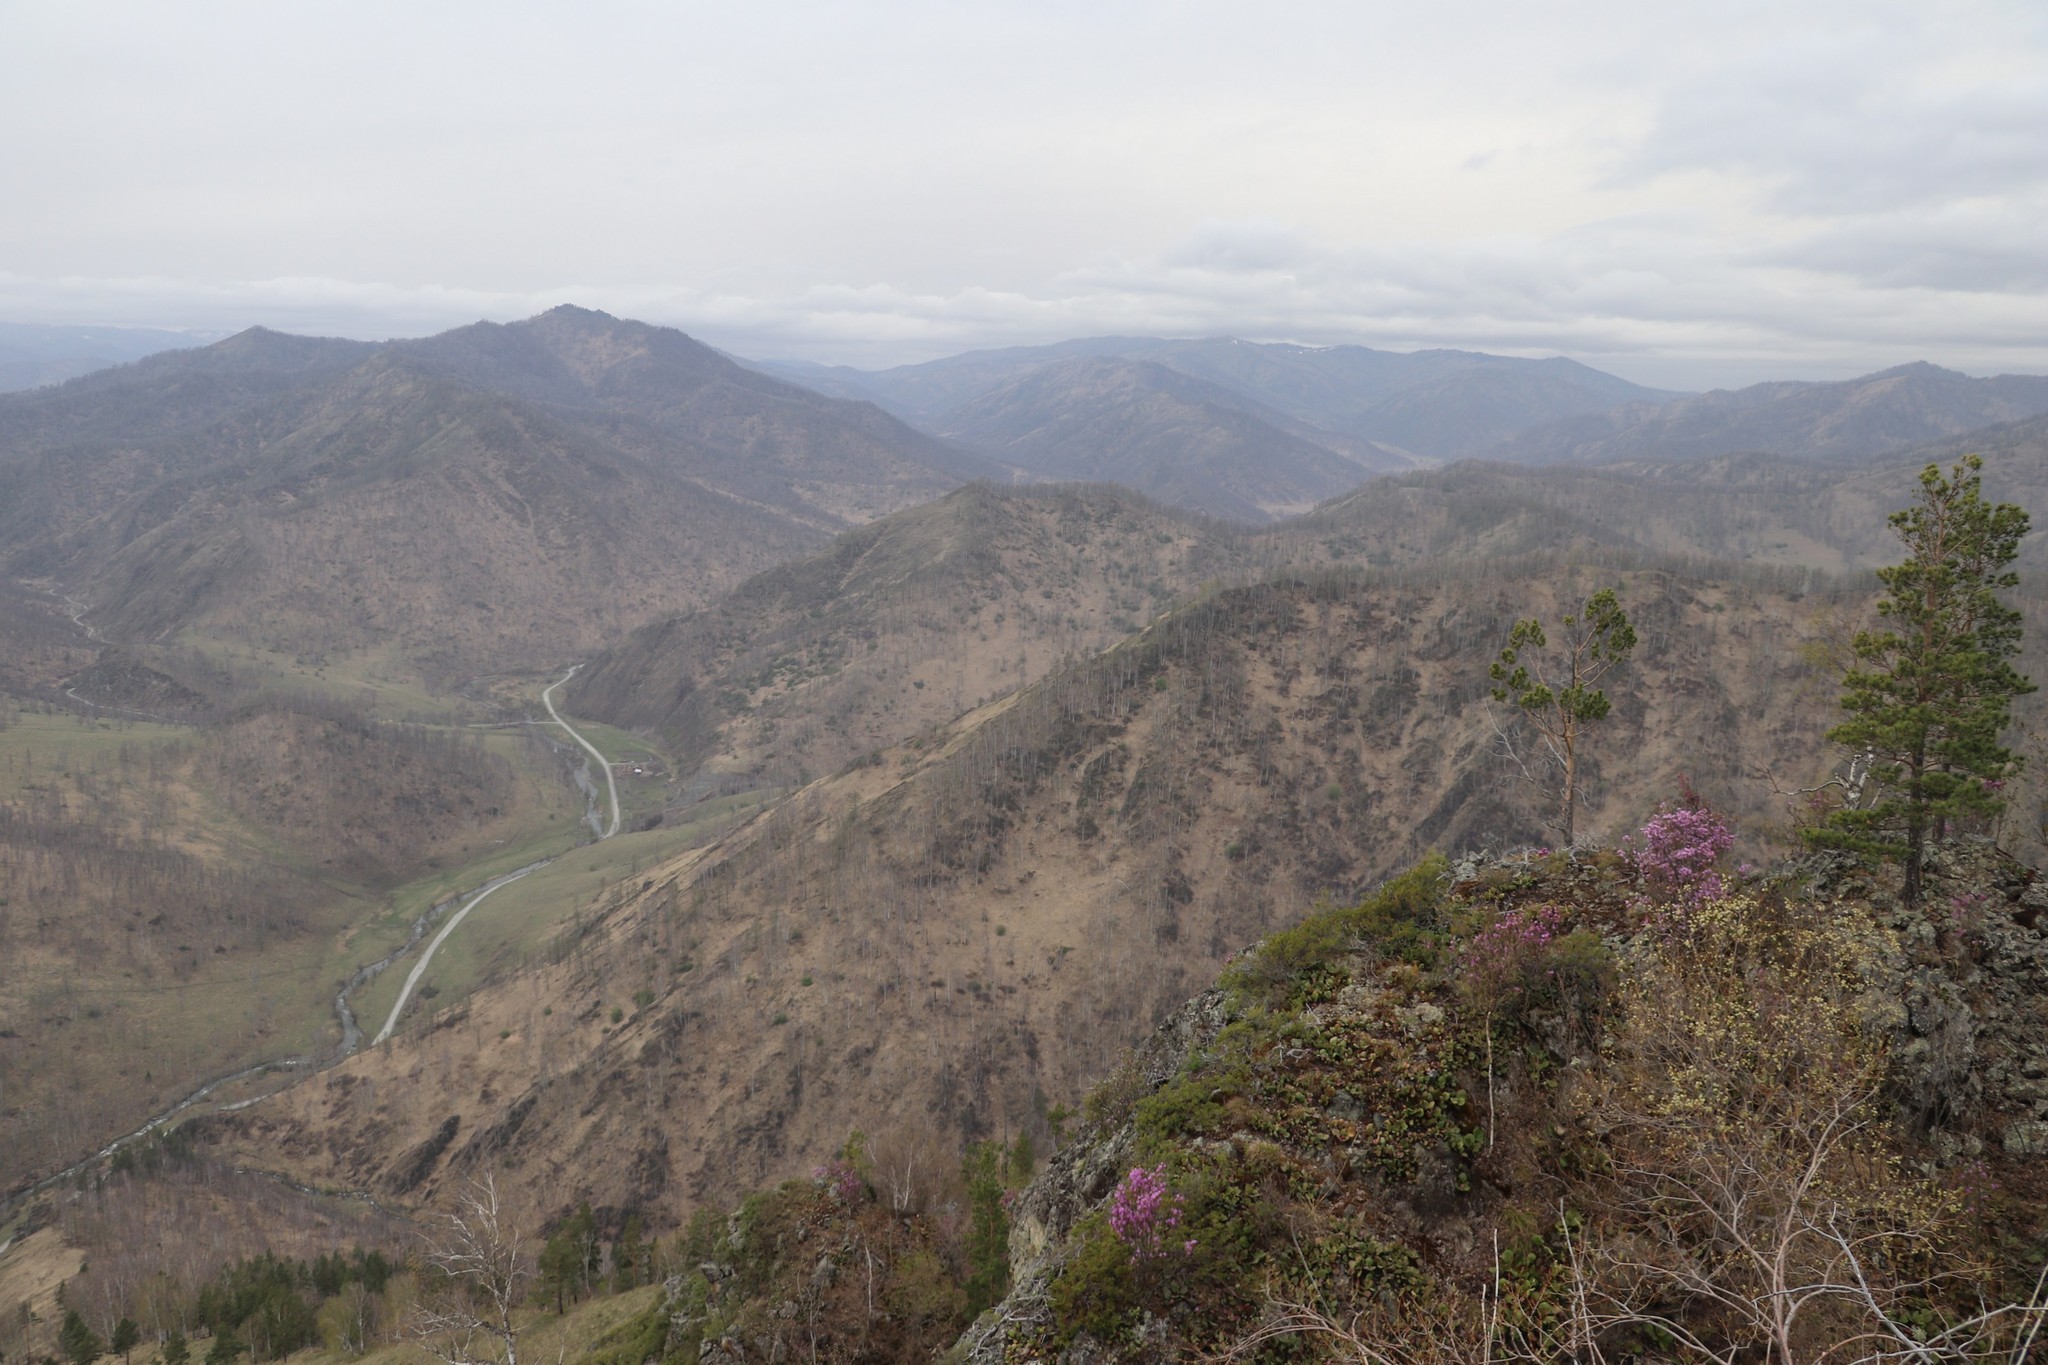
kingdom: Plantae
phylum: Tracheophyta
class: Magnoliopsida
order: Ericales
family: Ericaceae
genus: Rhododendron
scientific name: Rhododendron dauricum
